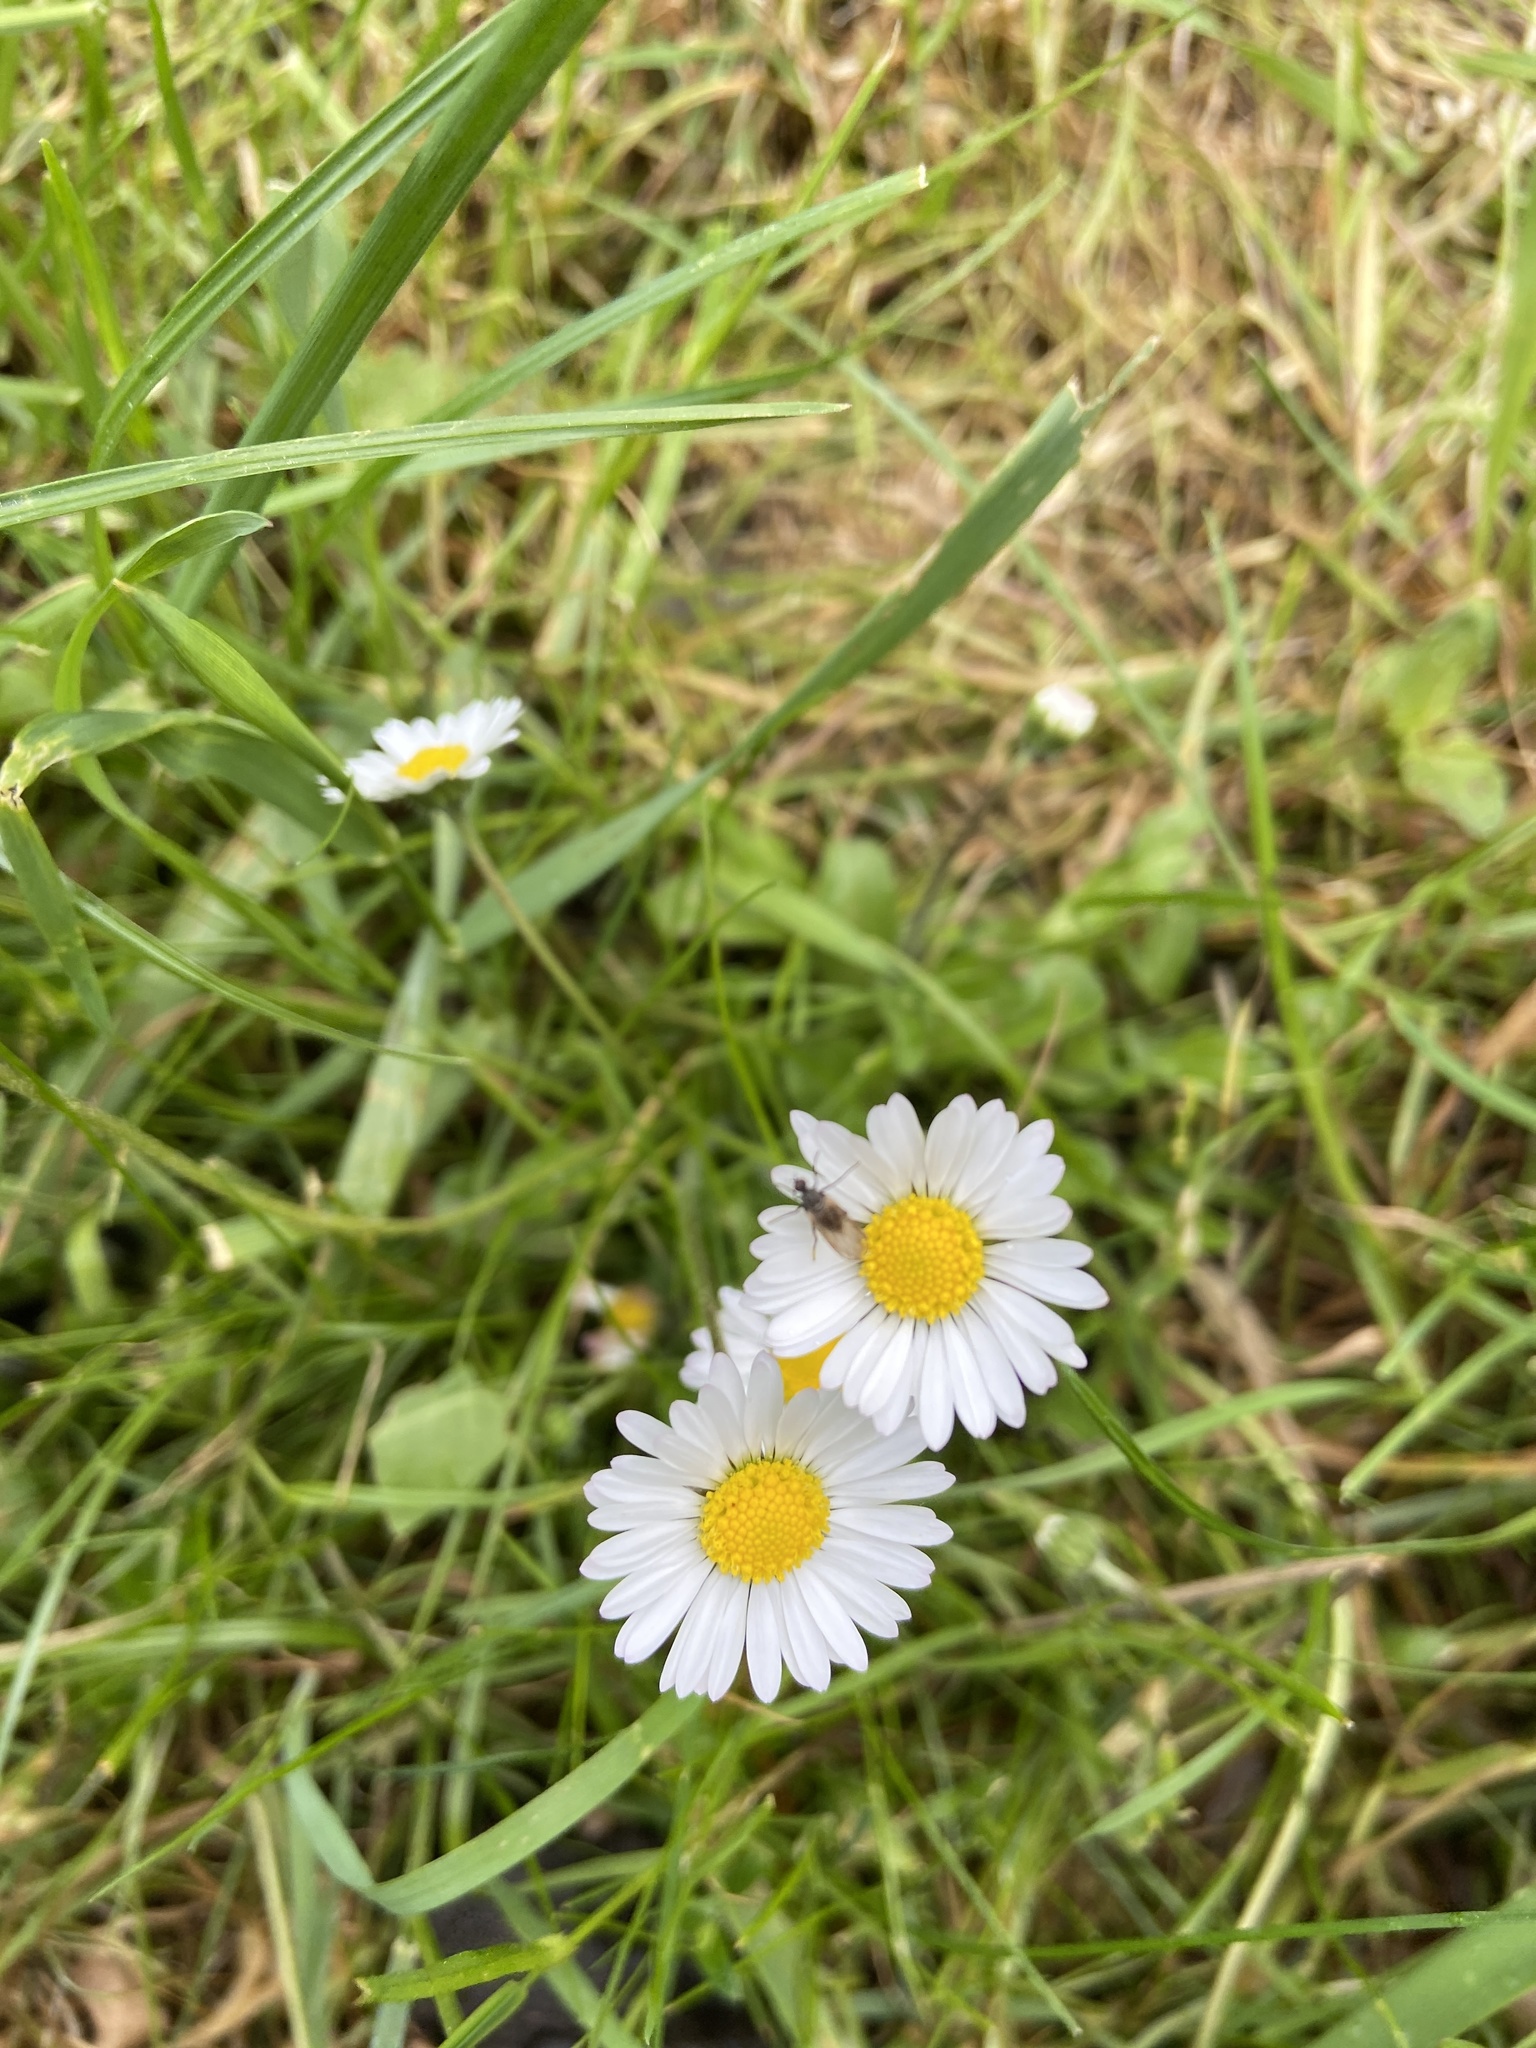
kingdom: Plantae
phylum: Tracheophyta
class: Magnoliopsida
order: Asterales
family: Asteraceae
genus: Bellis
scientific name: Bellis perennis
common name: Lawndaisy
